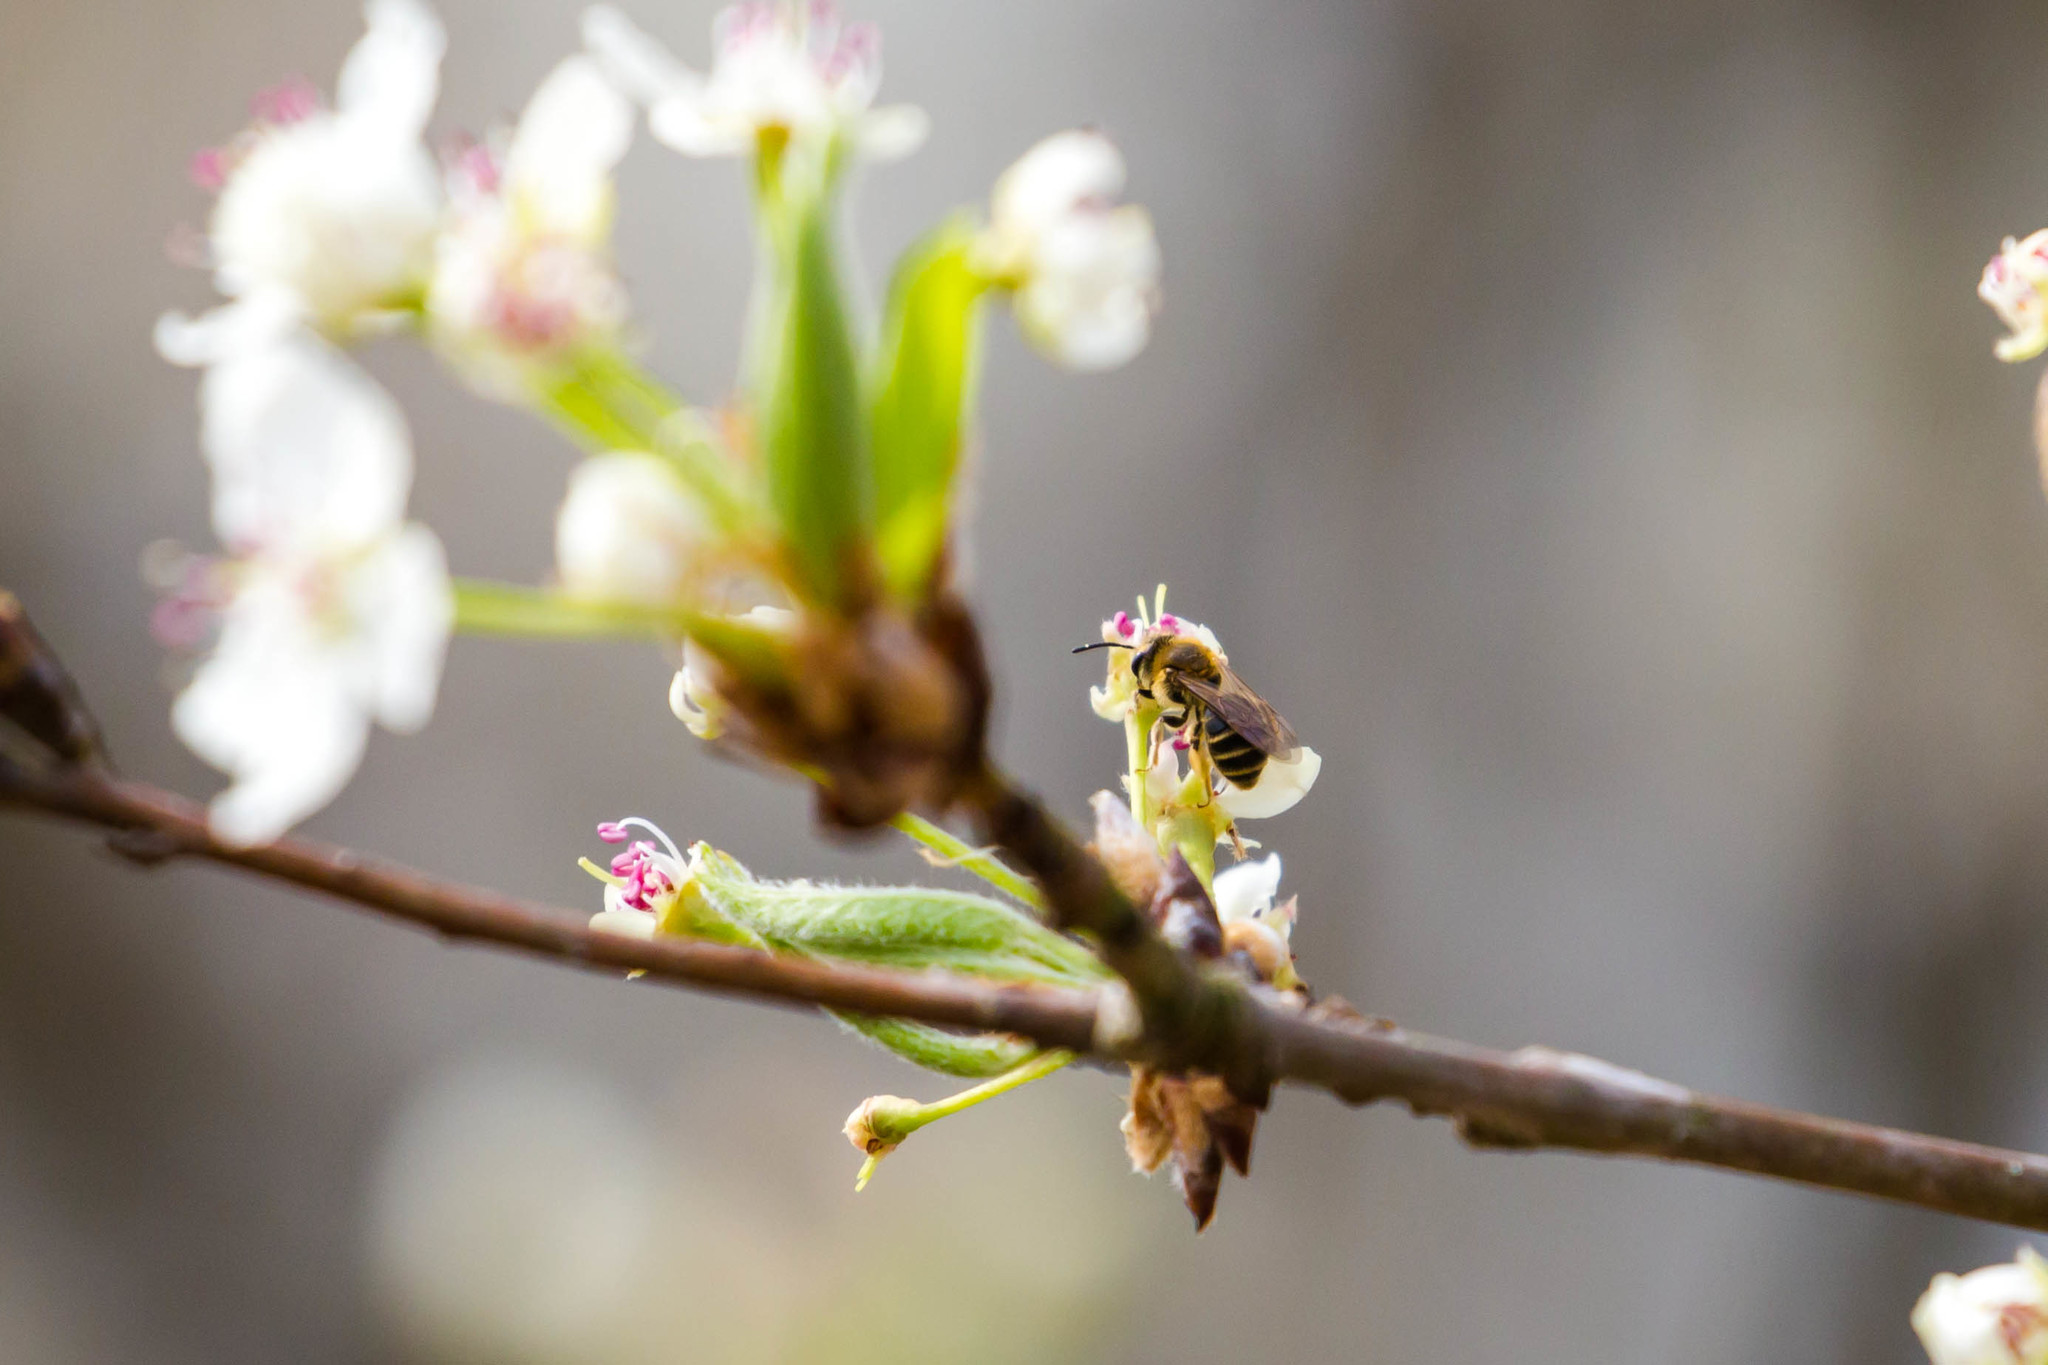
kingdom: Animalia
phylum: Arthropoda
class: Insecta
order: Hymenoptera
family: Colletidae
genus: Colletes
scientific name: Colletes inaequalis
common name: Unequal cellophane bee
